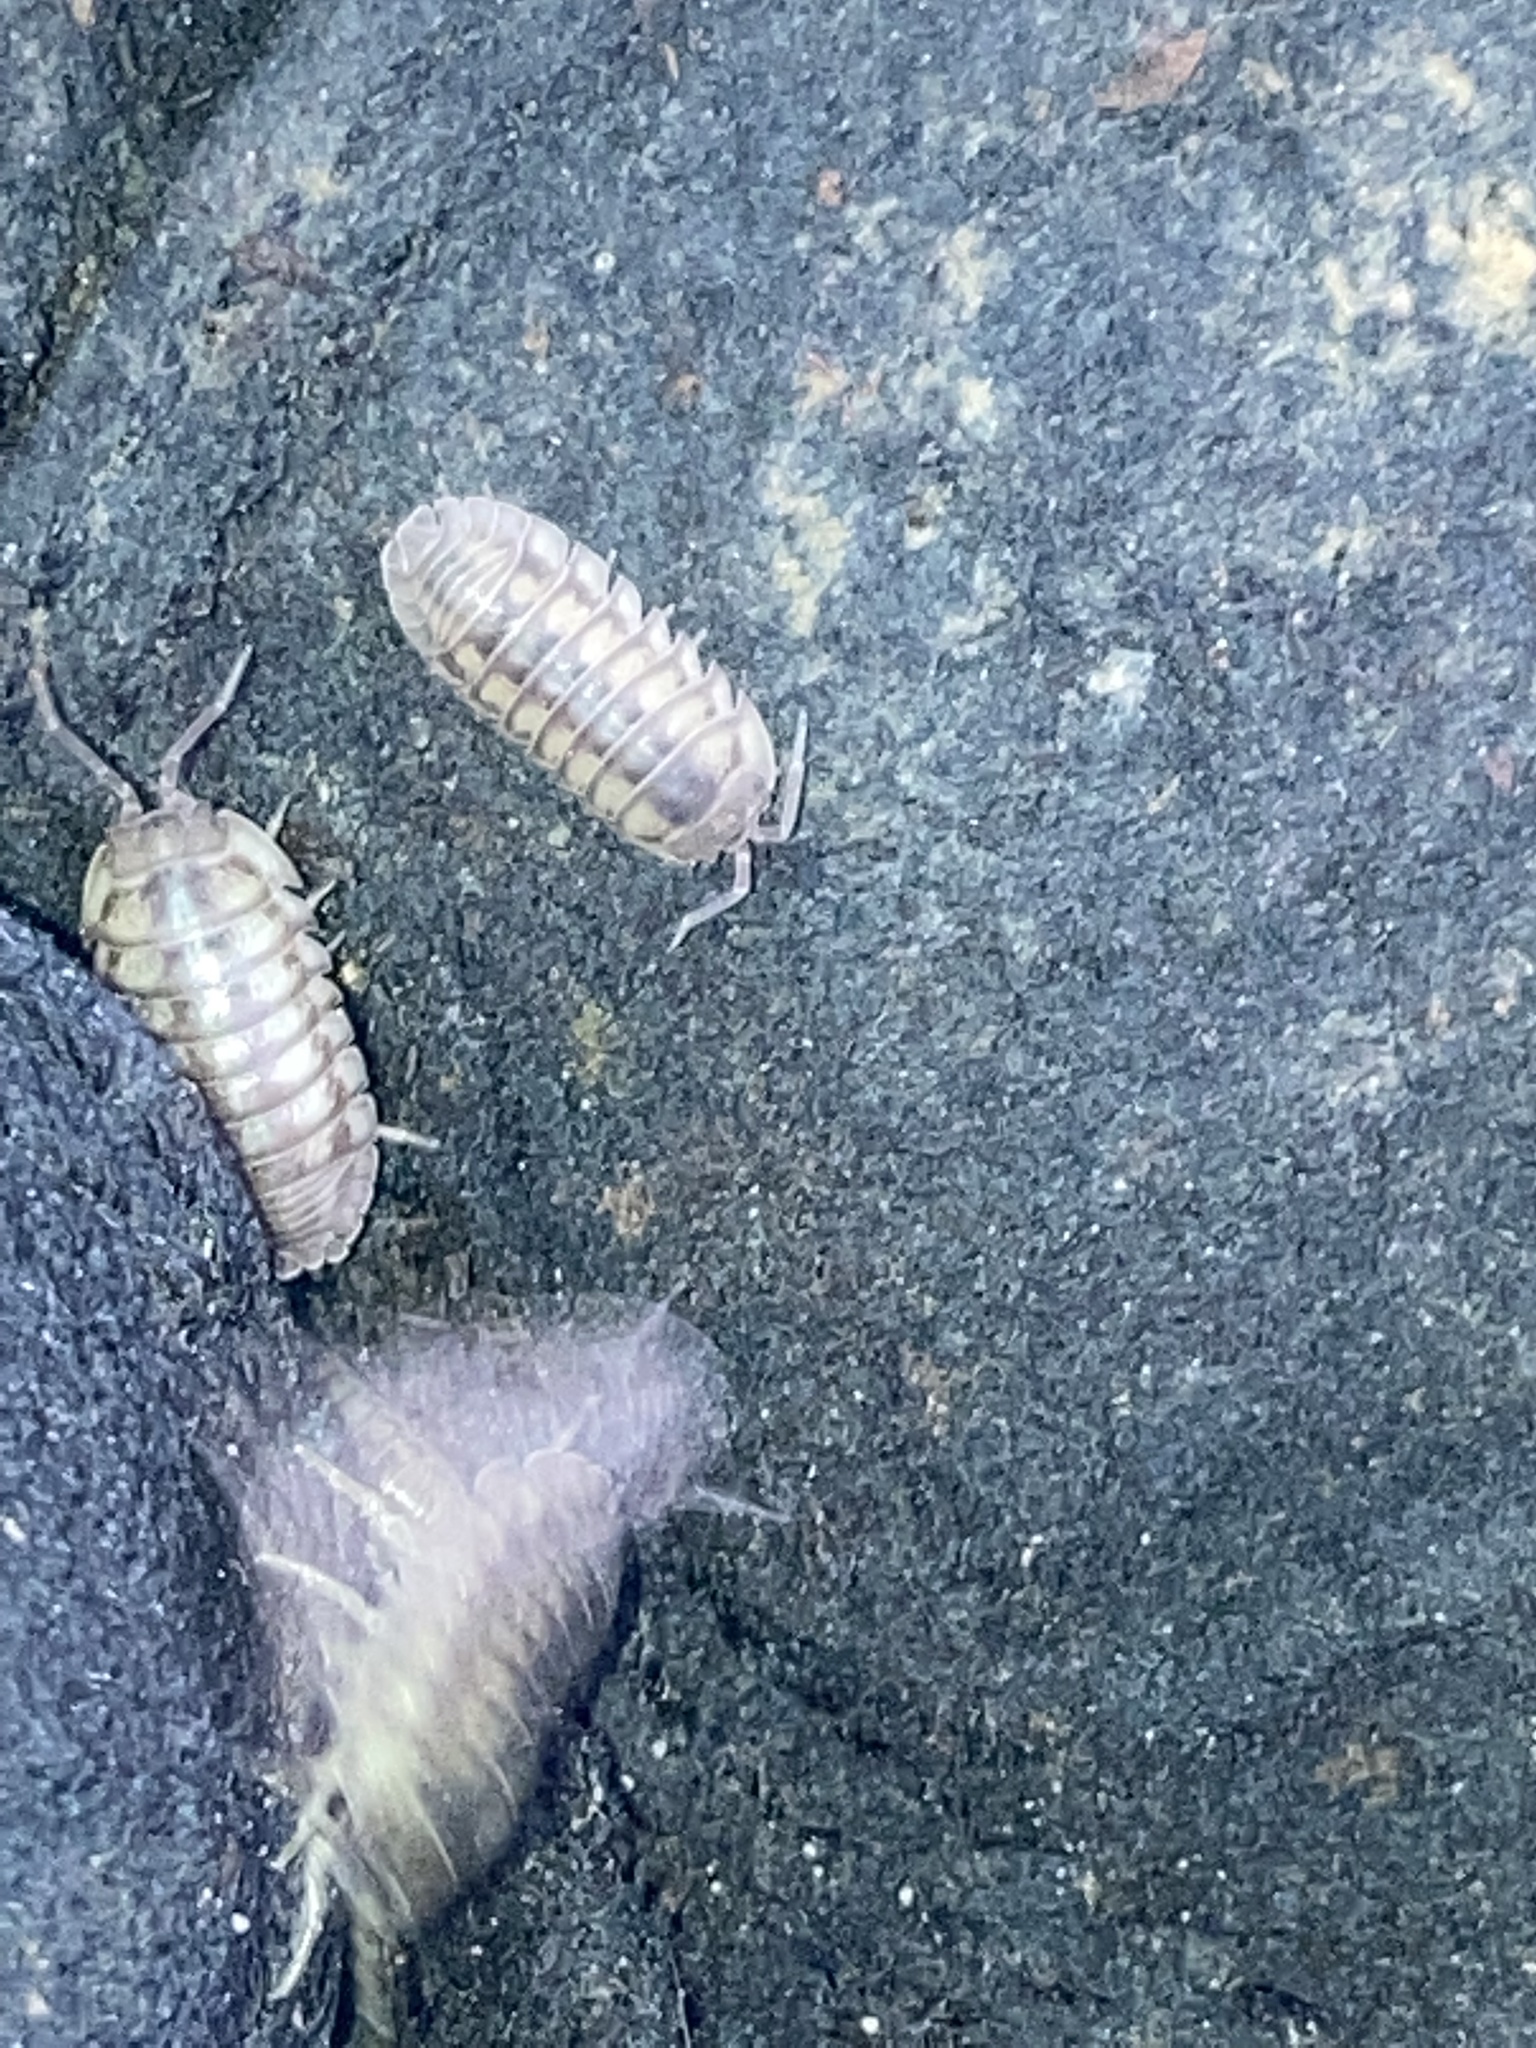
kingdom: Animalia
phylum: Arthropoda
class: Malacostraca
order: Isopoda
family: Armadillidiidae
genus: Armadillidium
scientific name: Armadillidium nasatum
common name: Isopod
